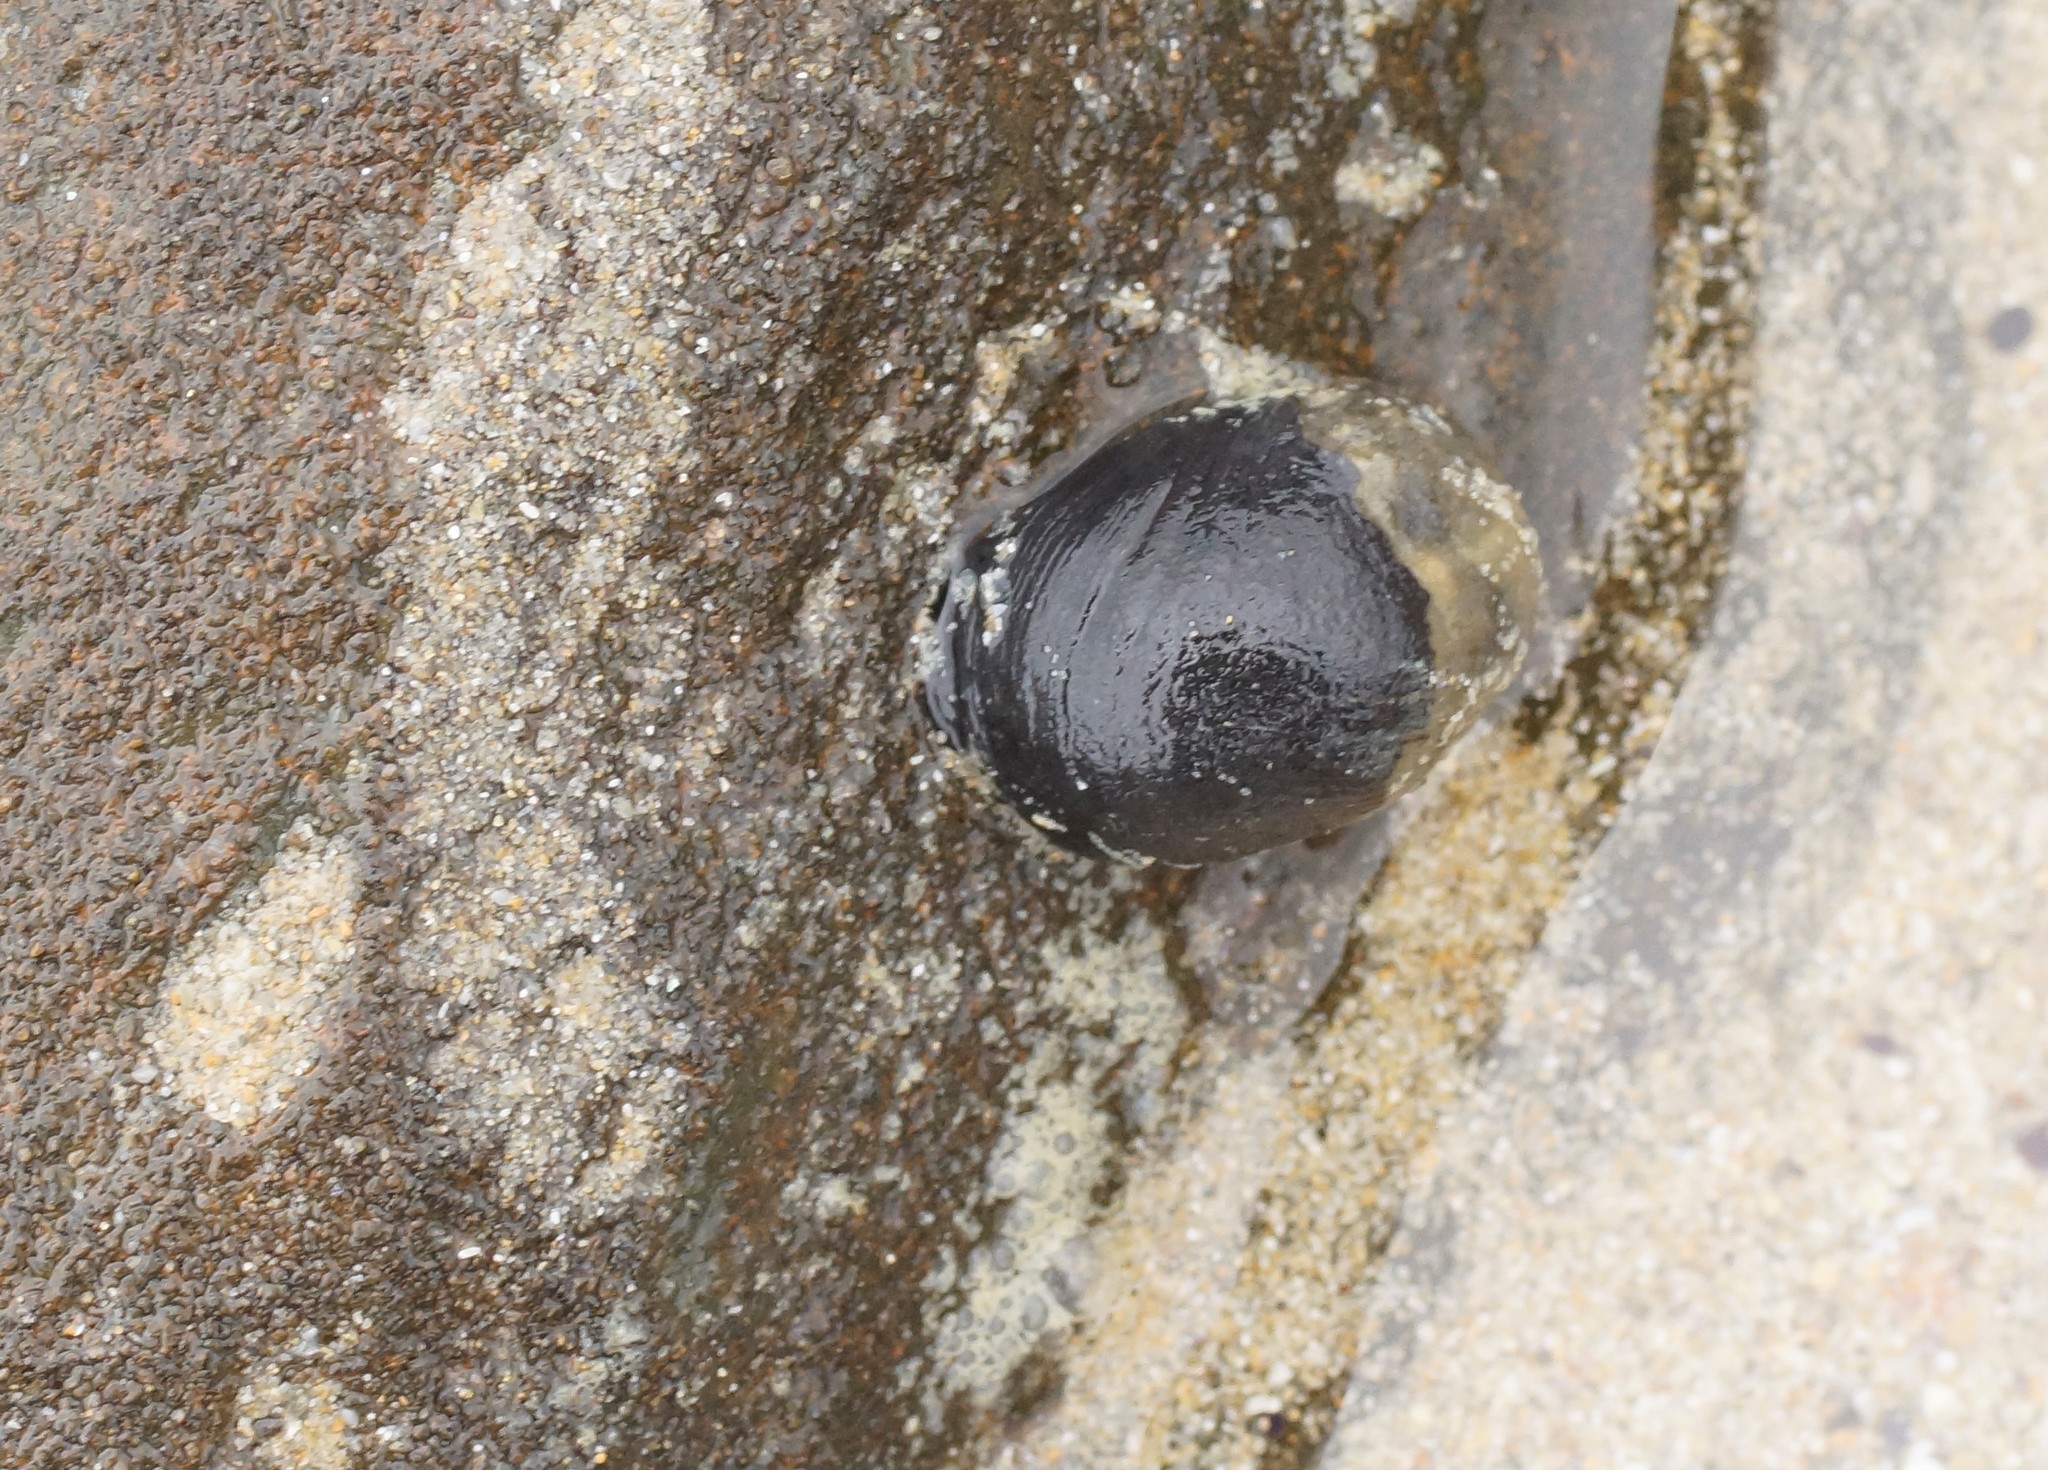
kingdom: Animalia
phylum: Mollusca
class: Gastropoda
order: Cycloneritida
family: Neritidae
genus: Nerita
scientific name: Nerita atramentosa
